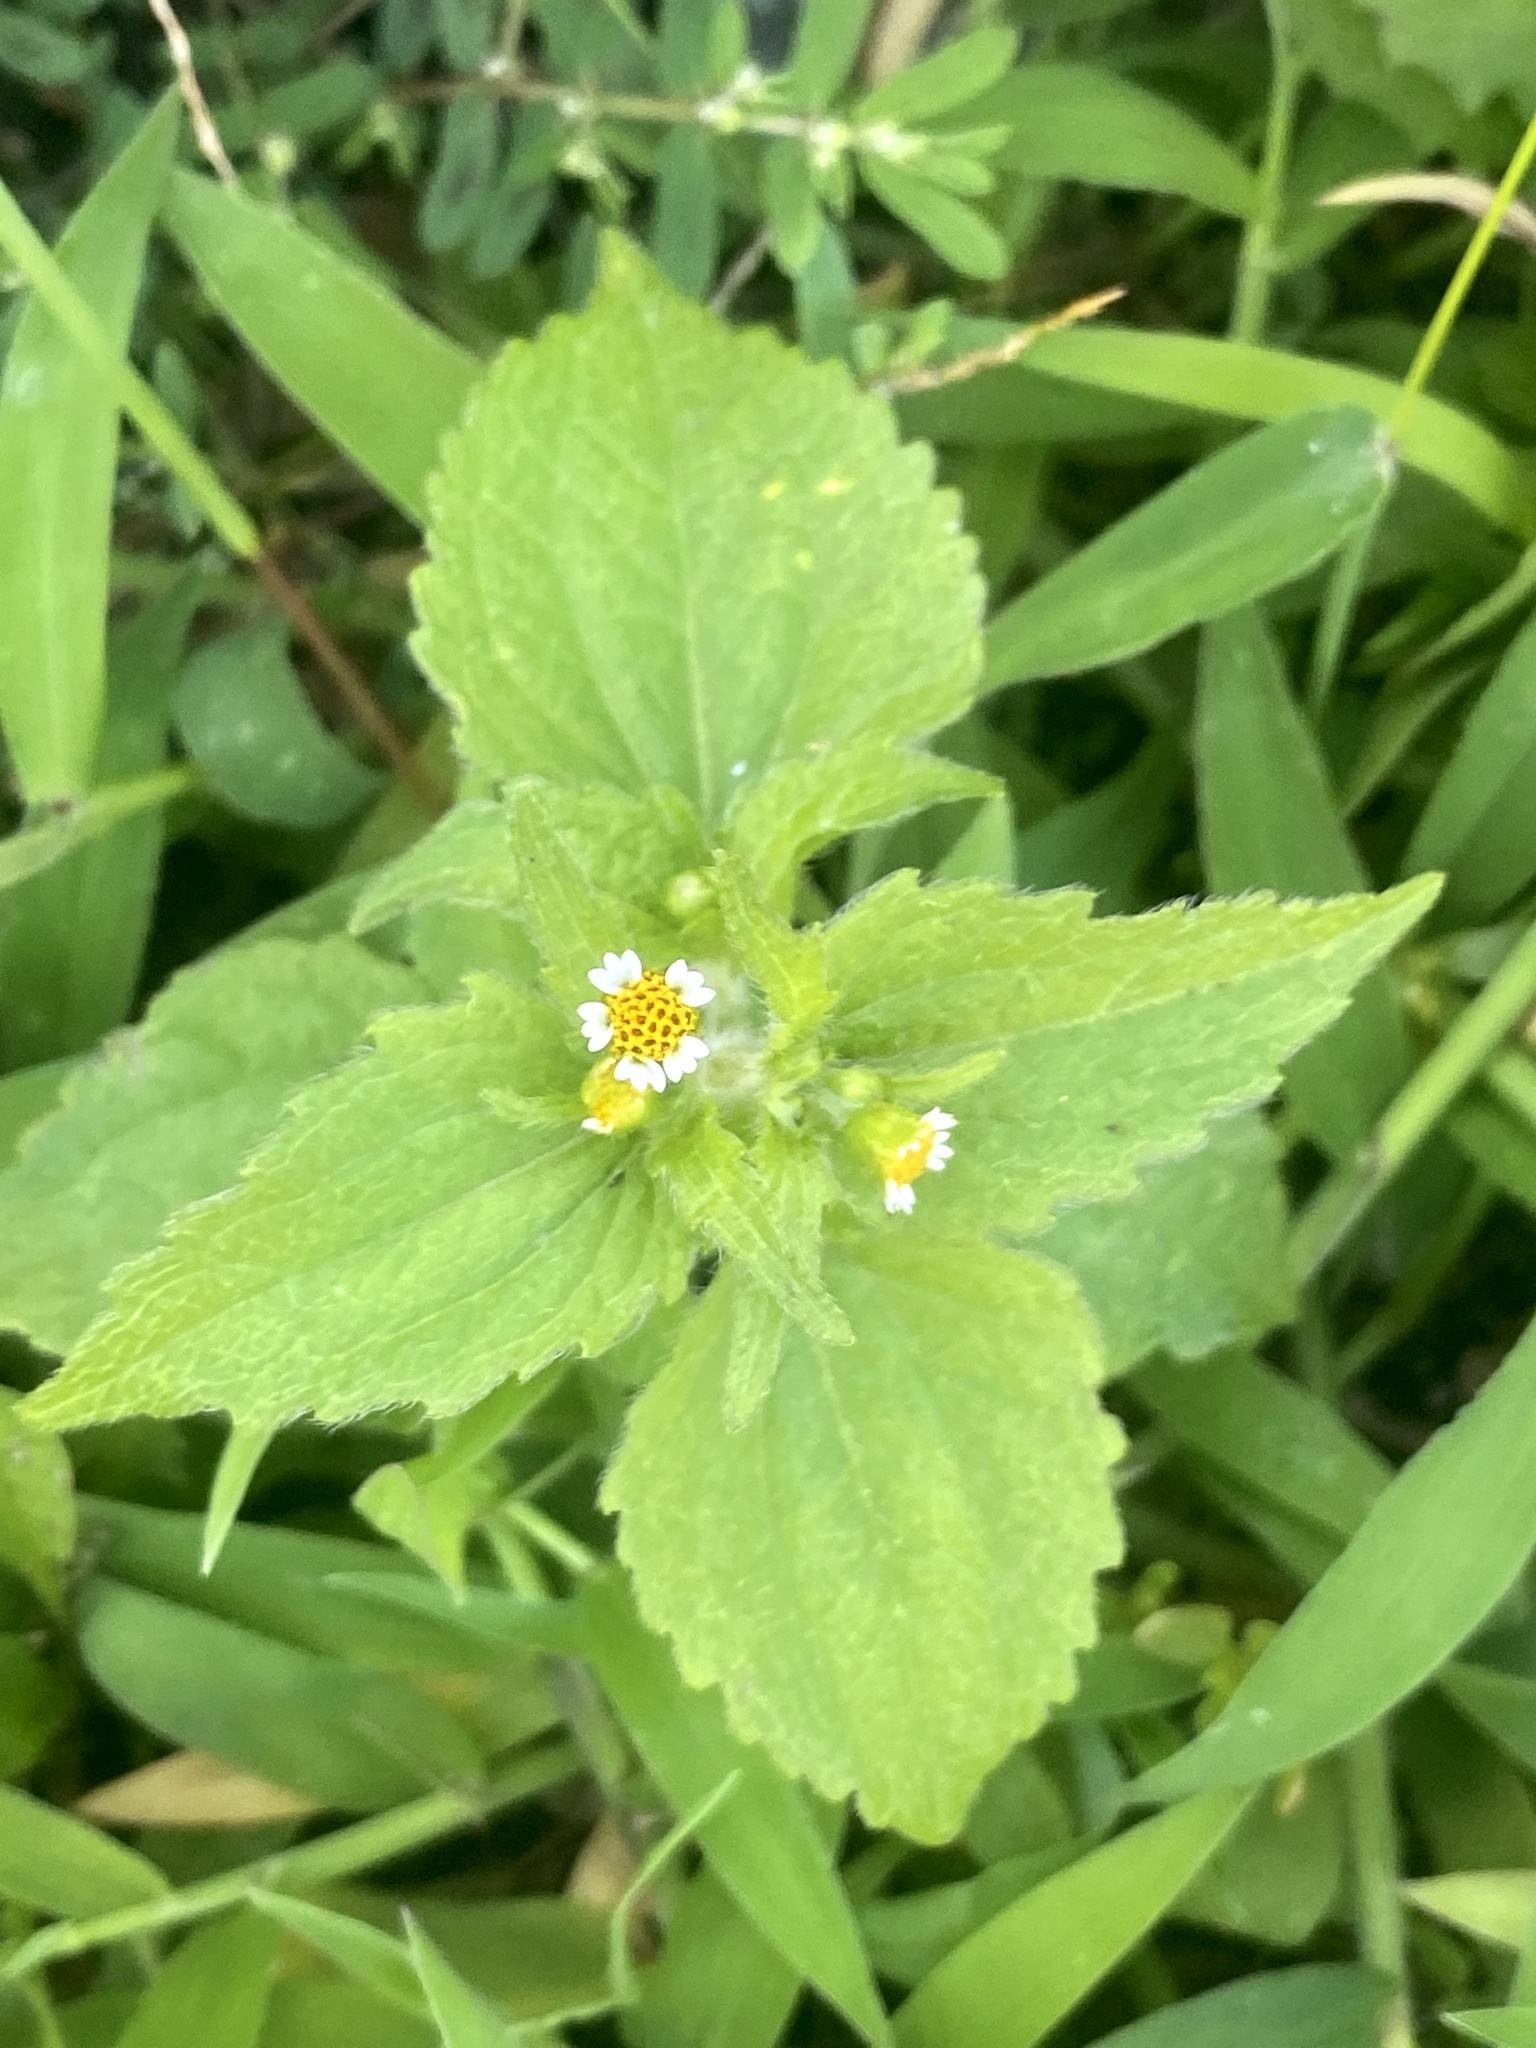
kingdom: Plantae
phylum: Tracheophyta
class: Magnoliopsida
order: Asterales
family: Asteraceae
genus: Galinsoga
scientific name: Galinsoga quadriradiata
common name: Shaggy soldier
